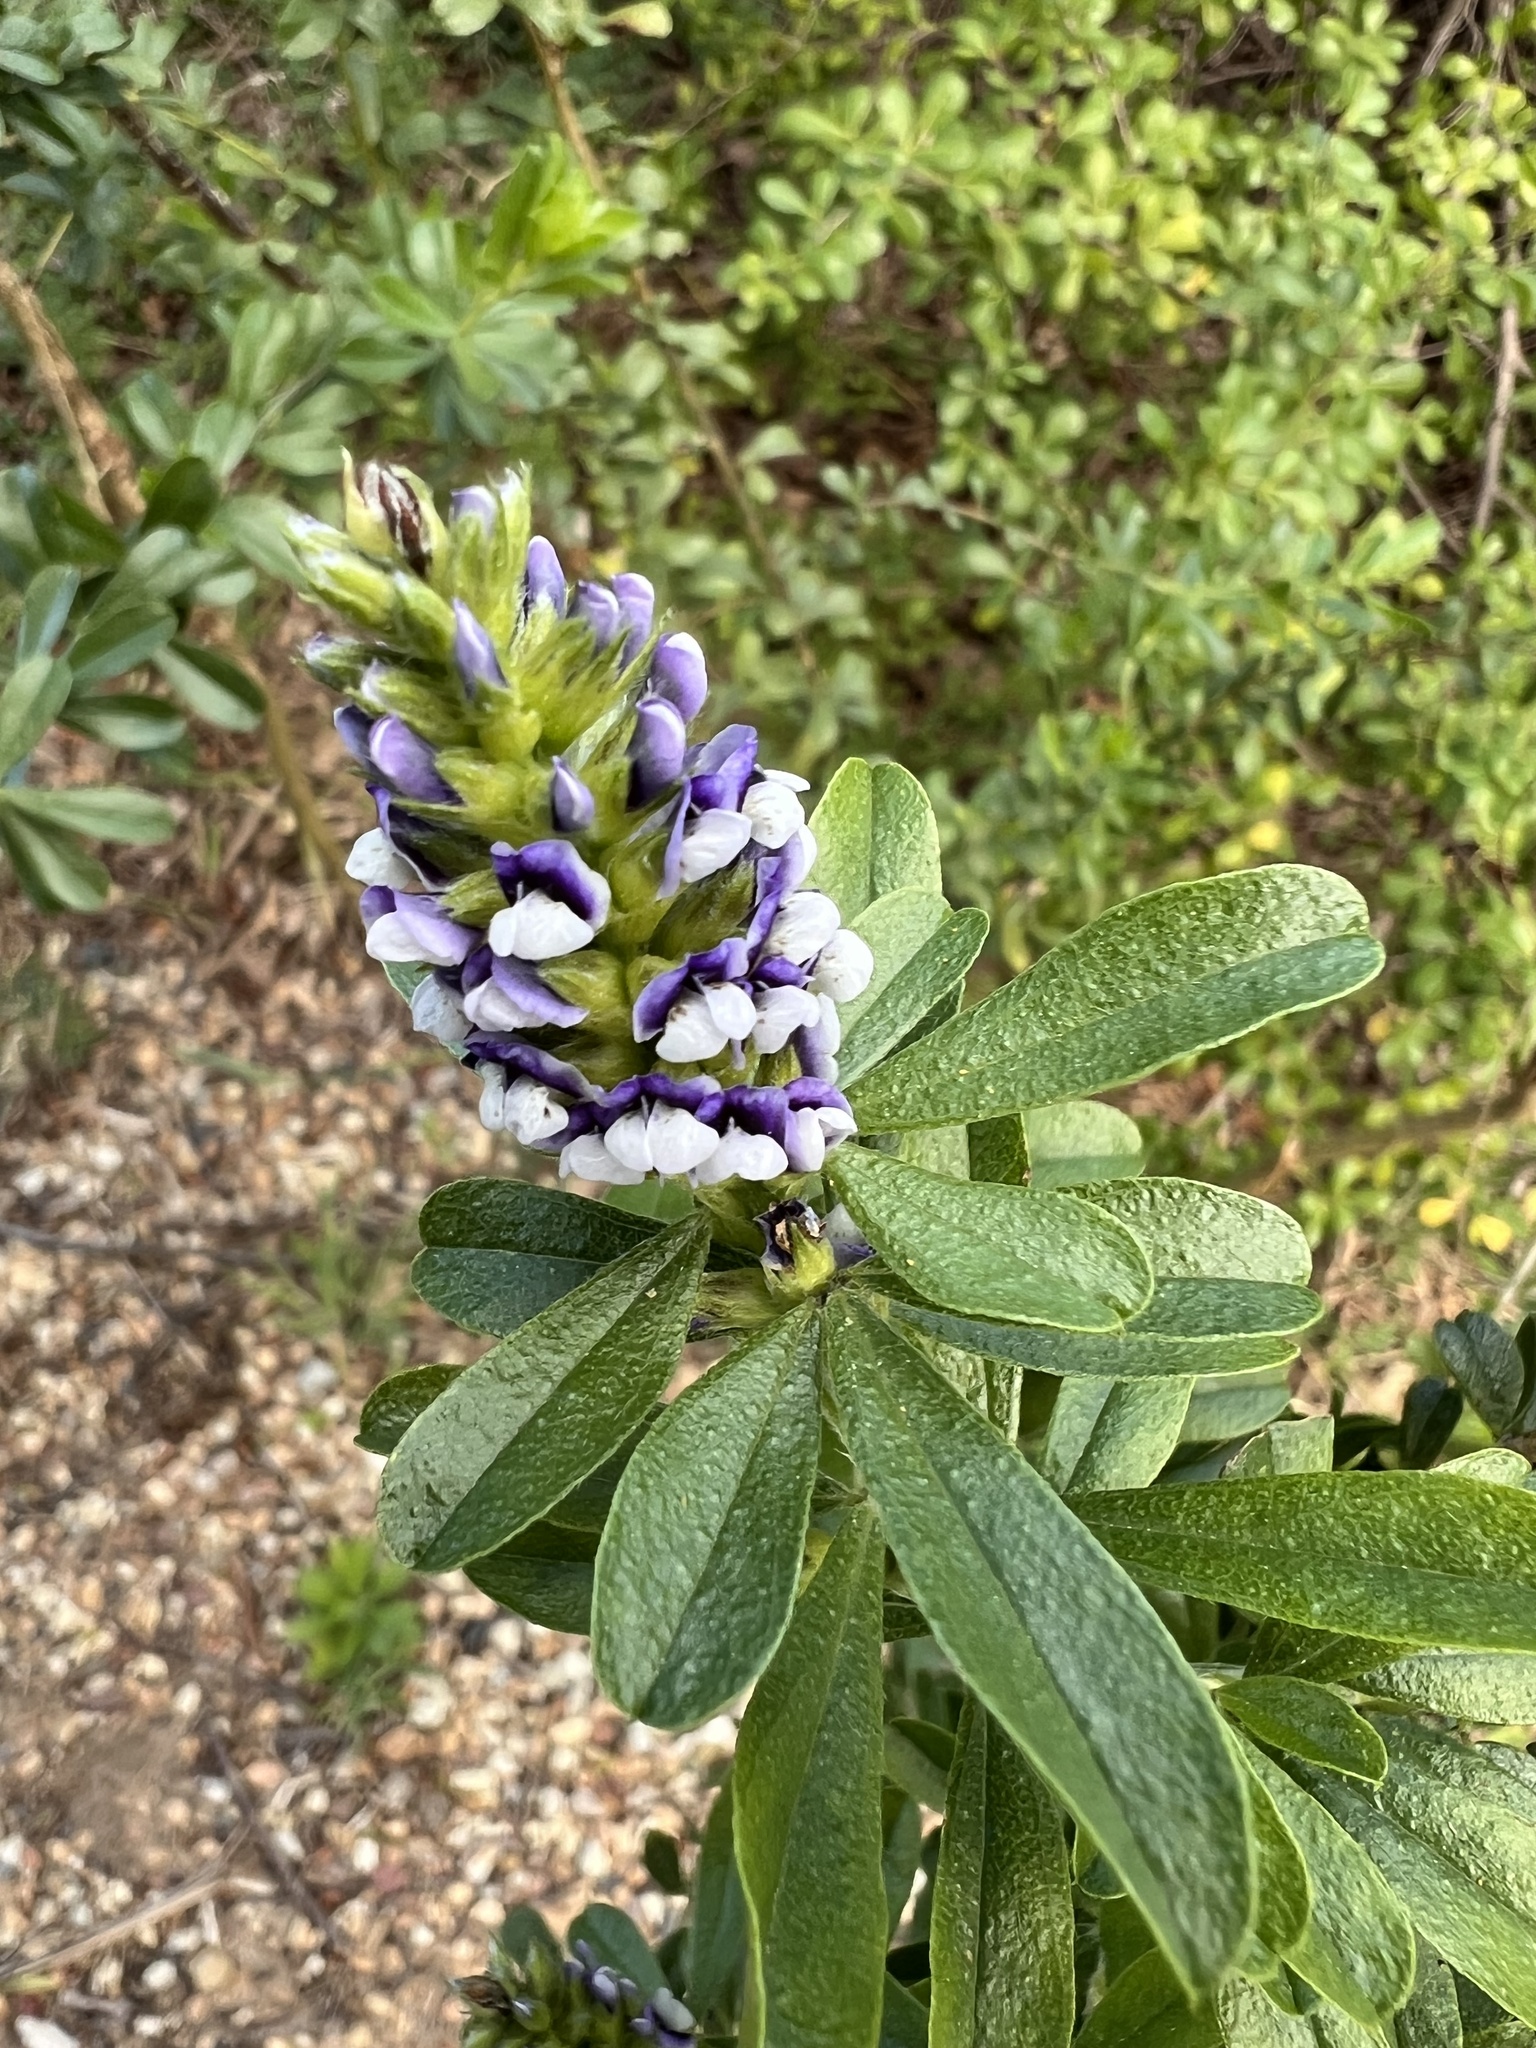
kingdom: Plantae
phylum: Tracheophyta
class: Magnoliopsida
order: Fabales
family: Fabaceae
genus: Psoralea
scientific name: Psoralea spicata
